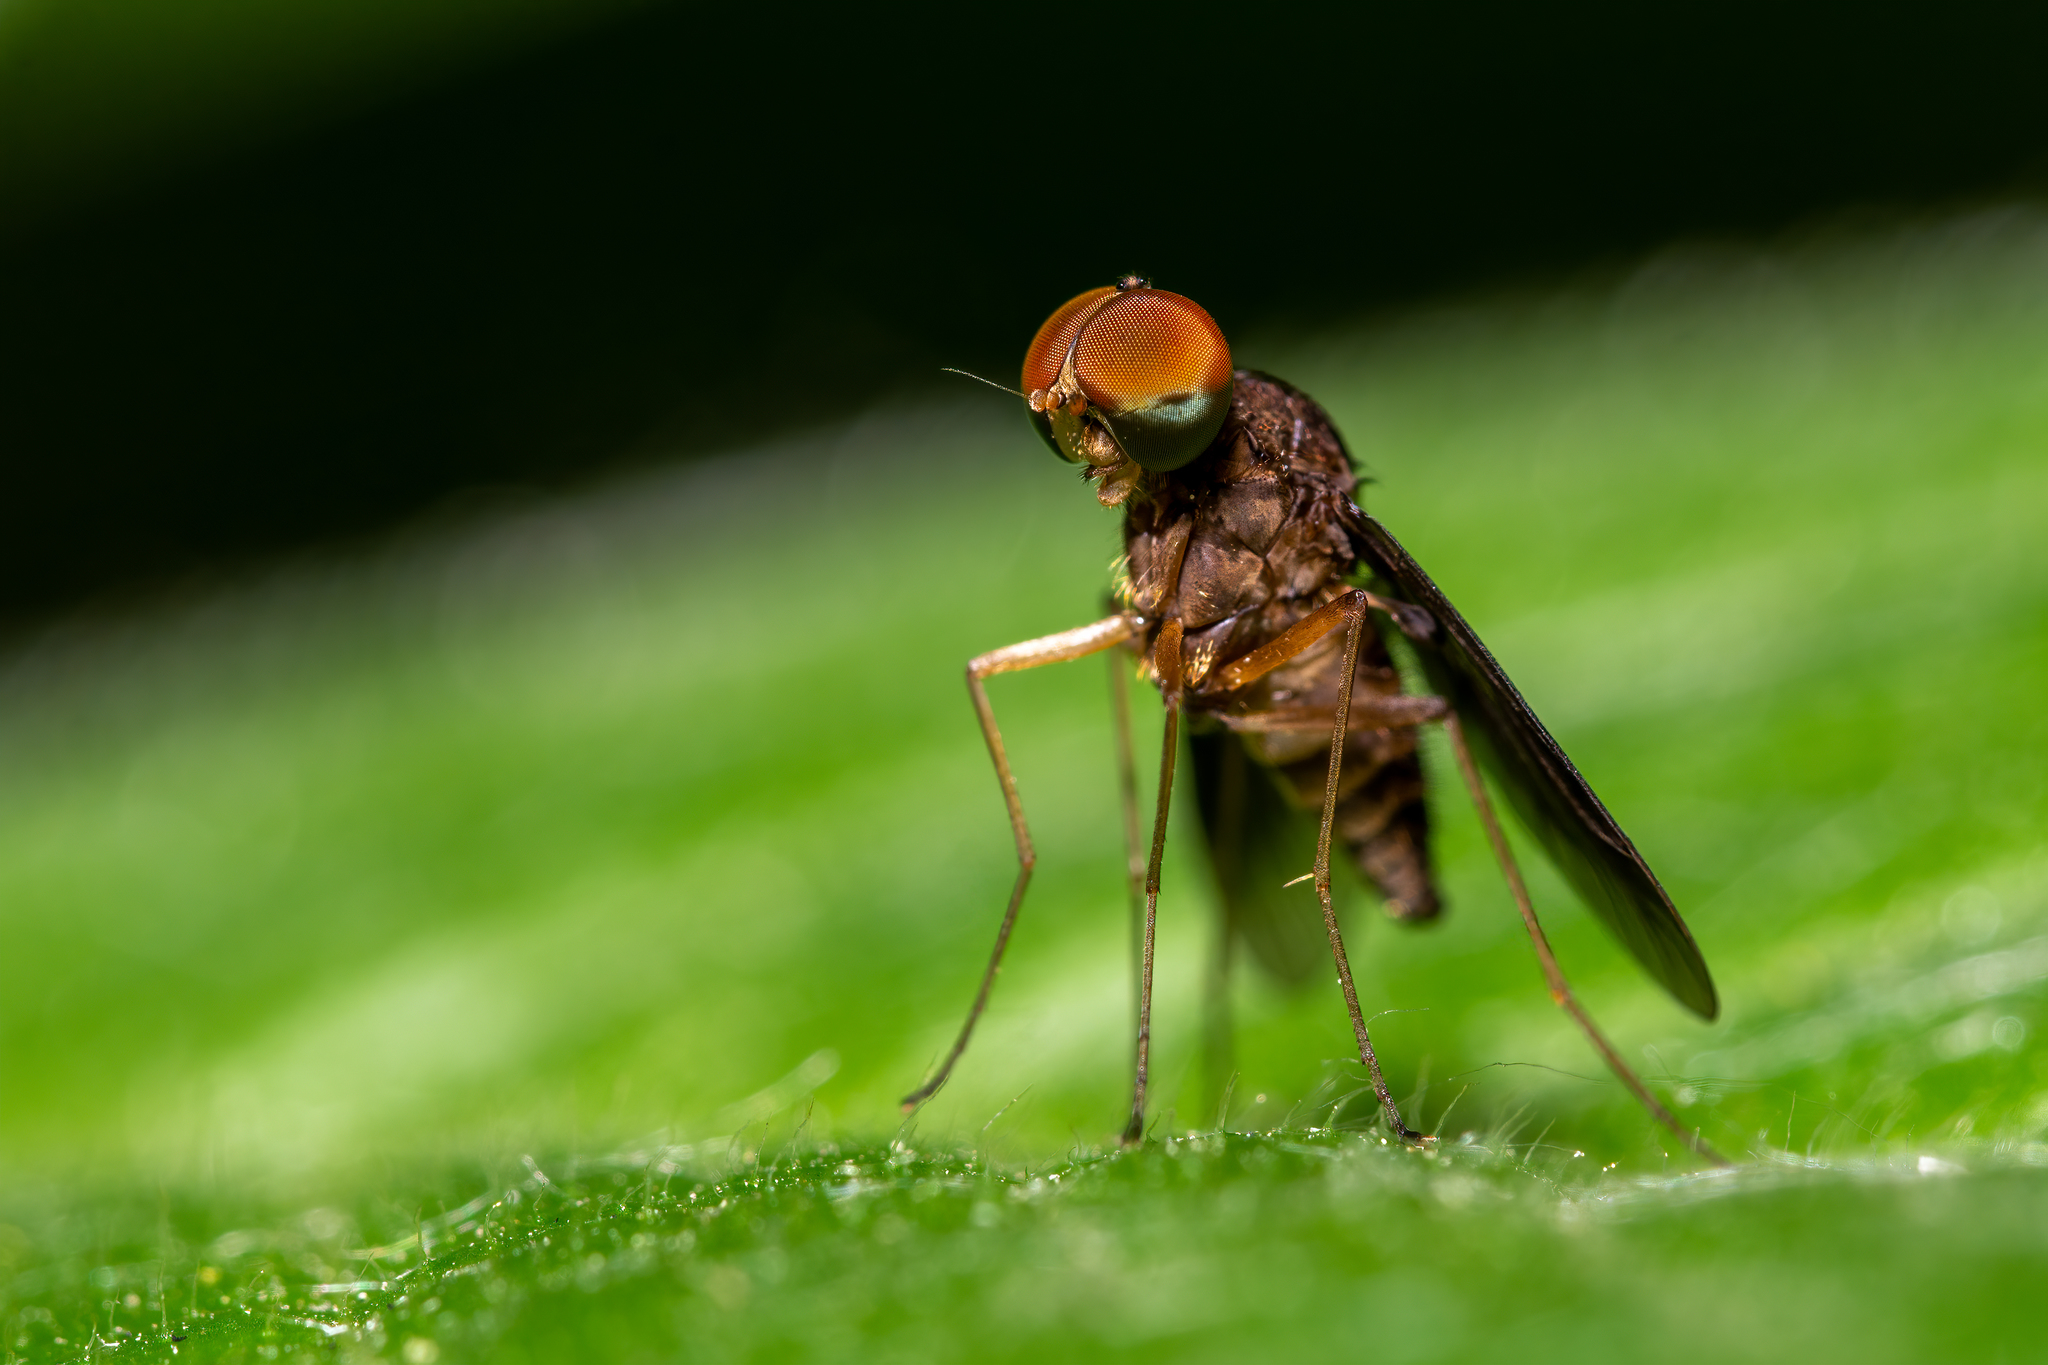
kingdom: Animalia
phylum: Arthropoda
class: Insecta
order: Diptera
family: Rhagionidae
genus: Chrysopilus
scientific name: Chrysopilus quadratus
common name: Quadrate snipe fly
